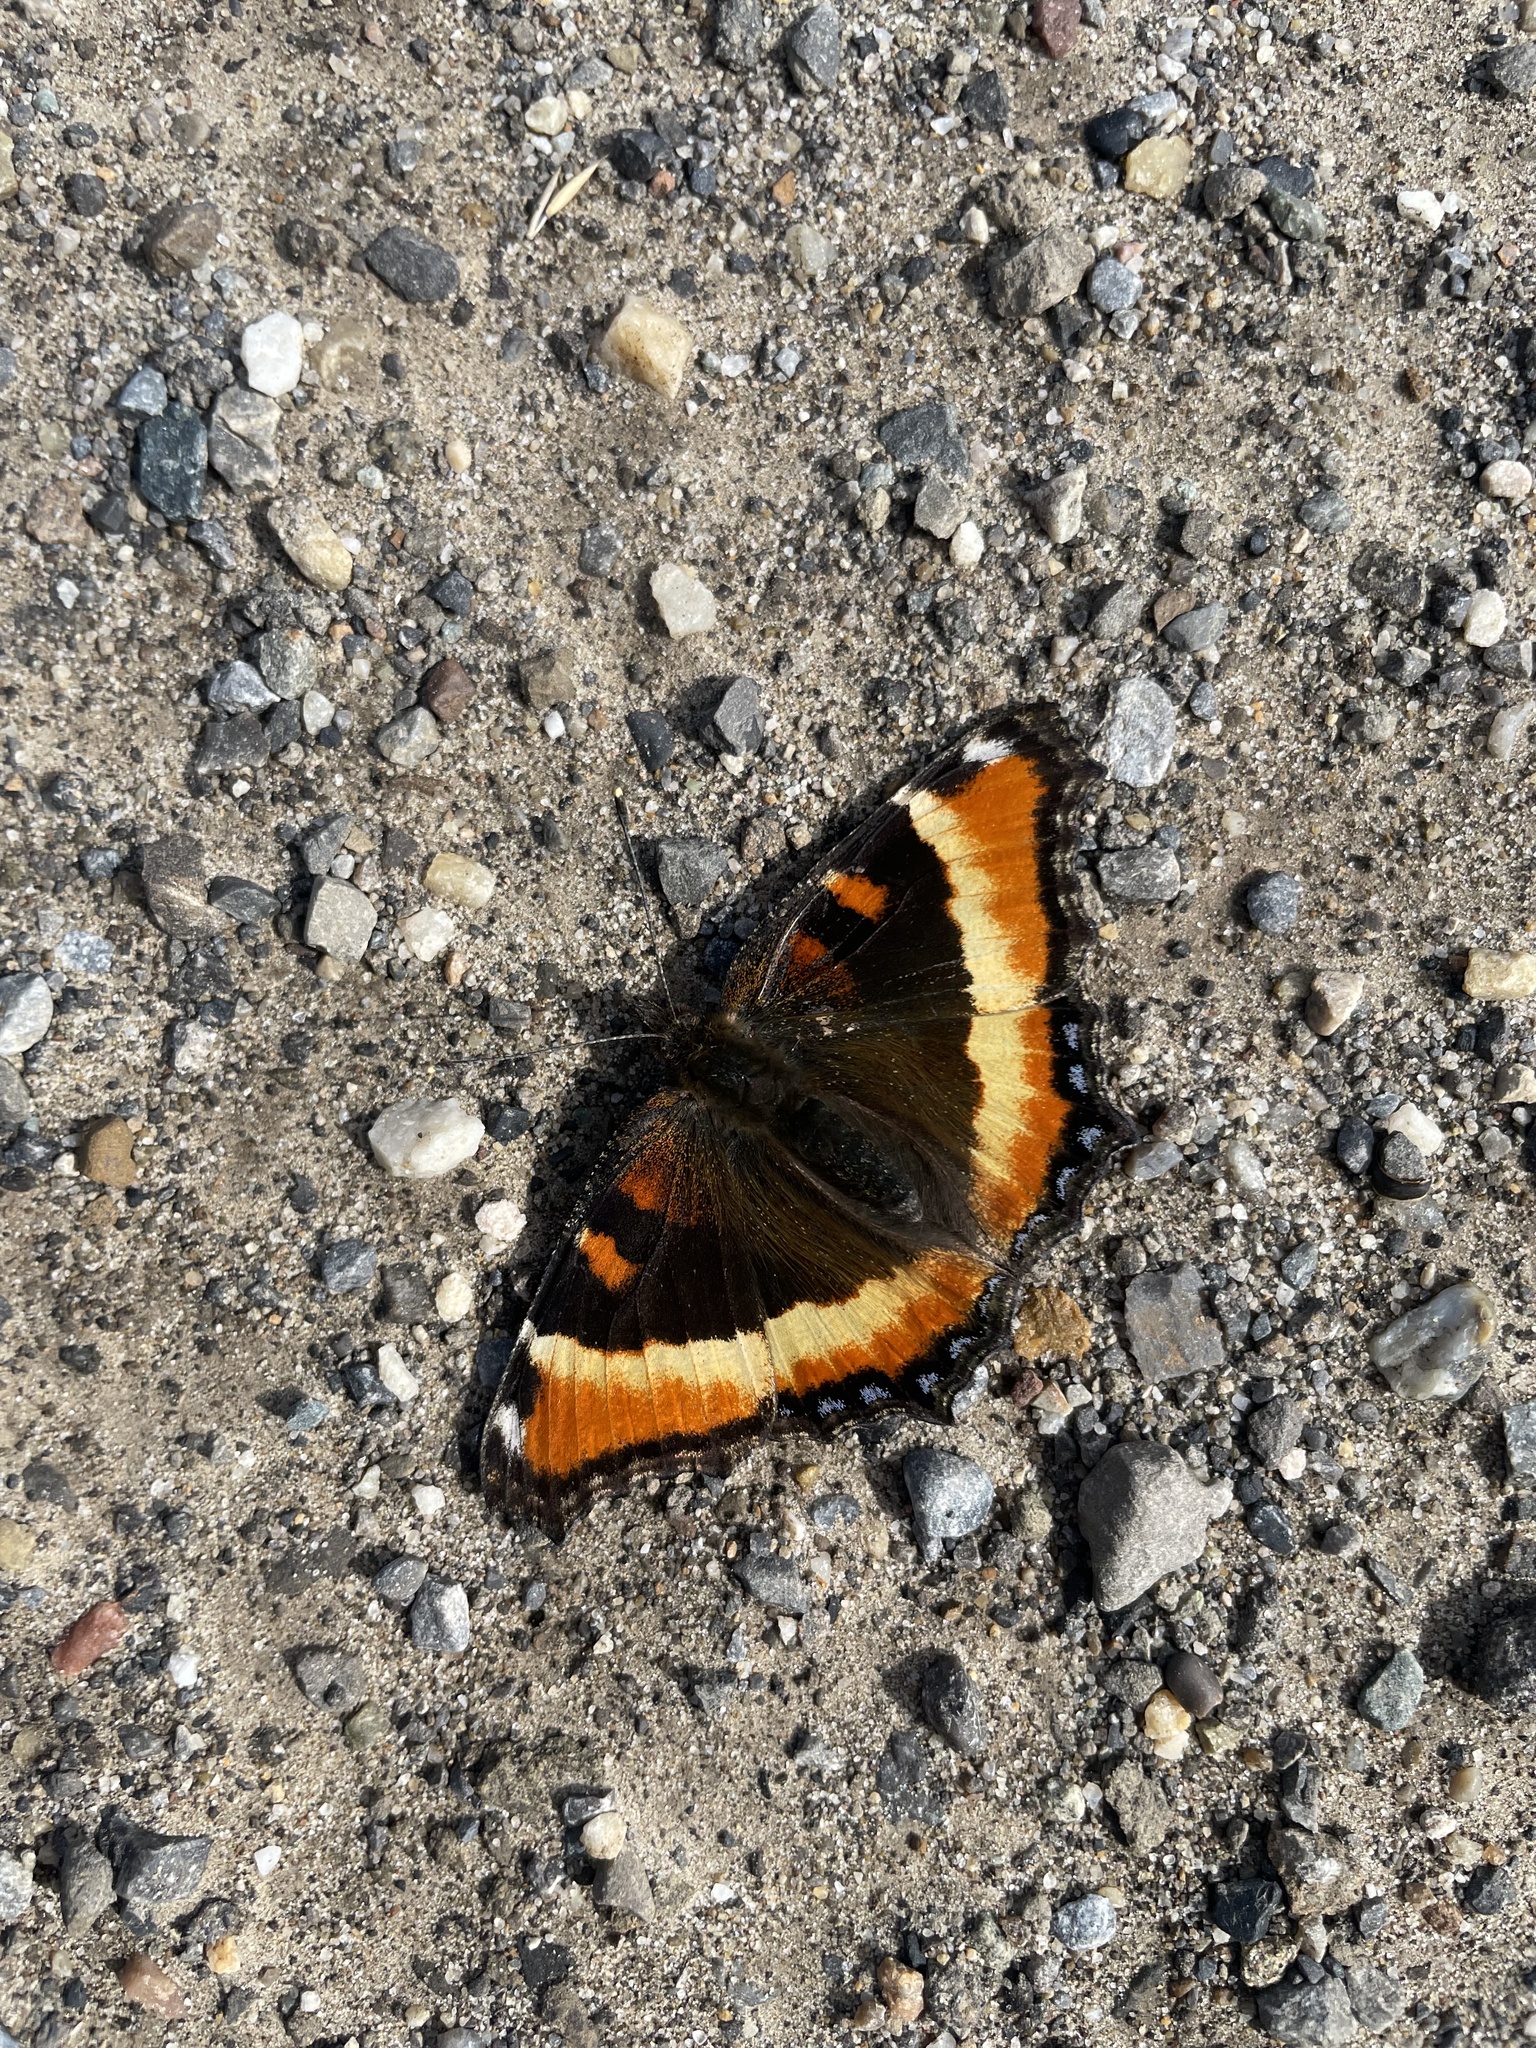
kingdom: Animalia
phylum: Arthropoda
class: Insecta
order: Lepidoptera
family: Nymphalidae
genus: Aglais
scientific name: Aglais milberti
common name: Milbert's tortoiseshell
